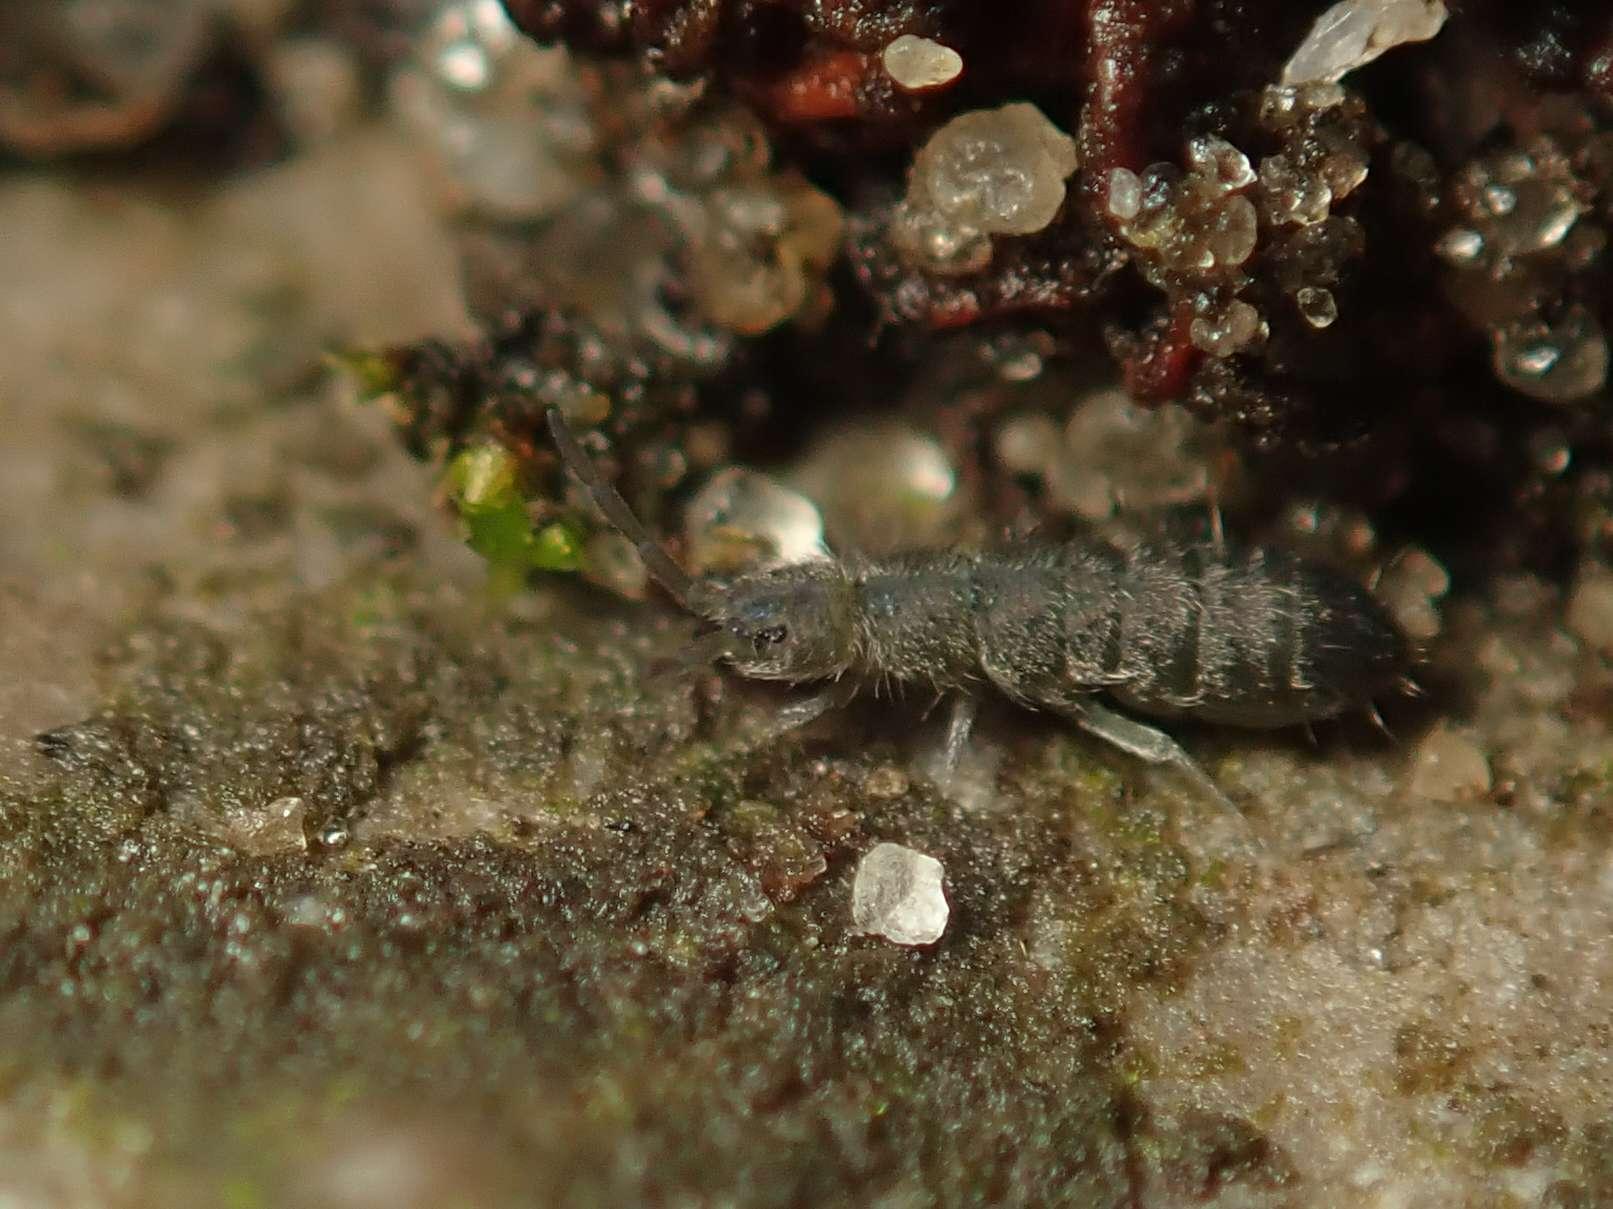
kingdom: Animalia
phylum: Arthropoda
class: Collembola
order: Entomobryomorpha
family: Isotomidae
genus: Isotoma
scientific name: Isotoma viridis
